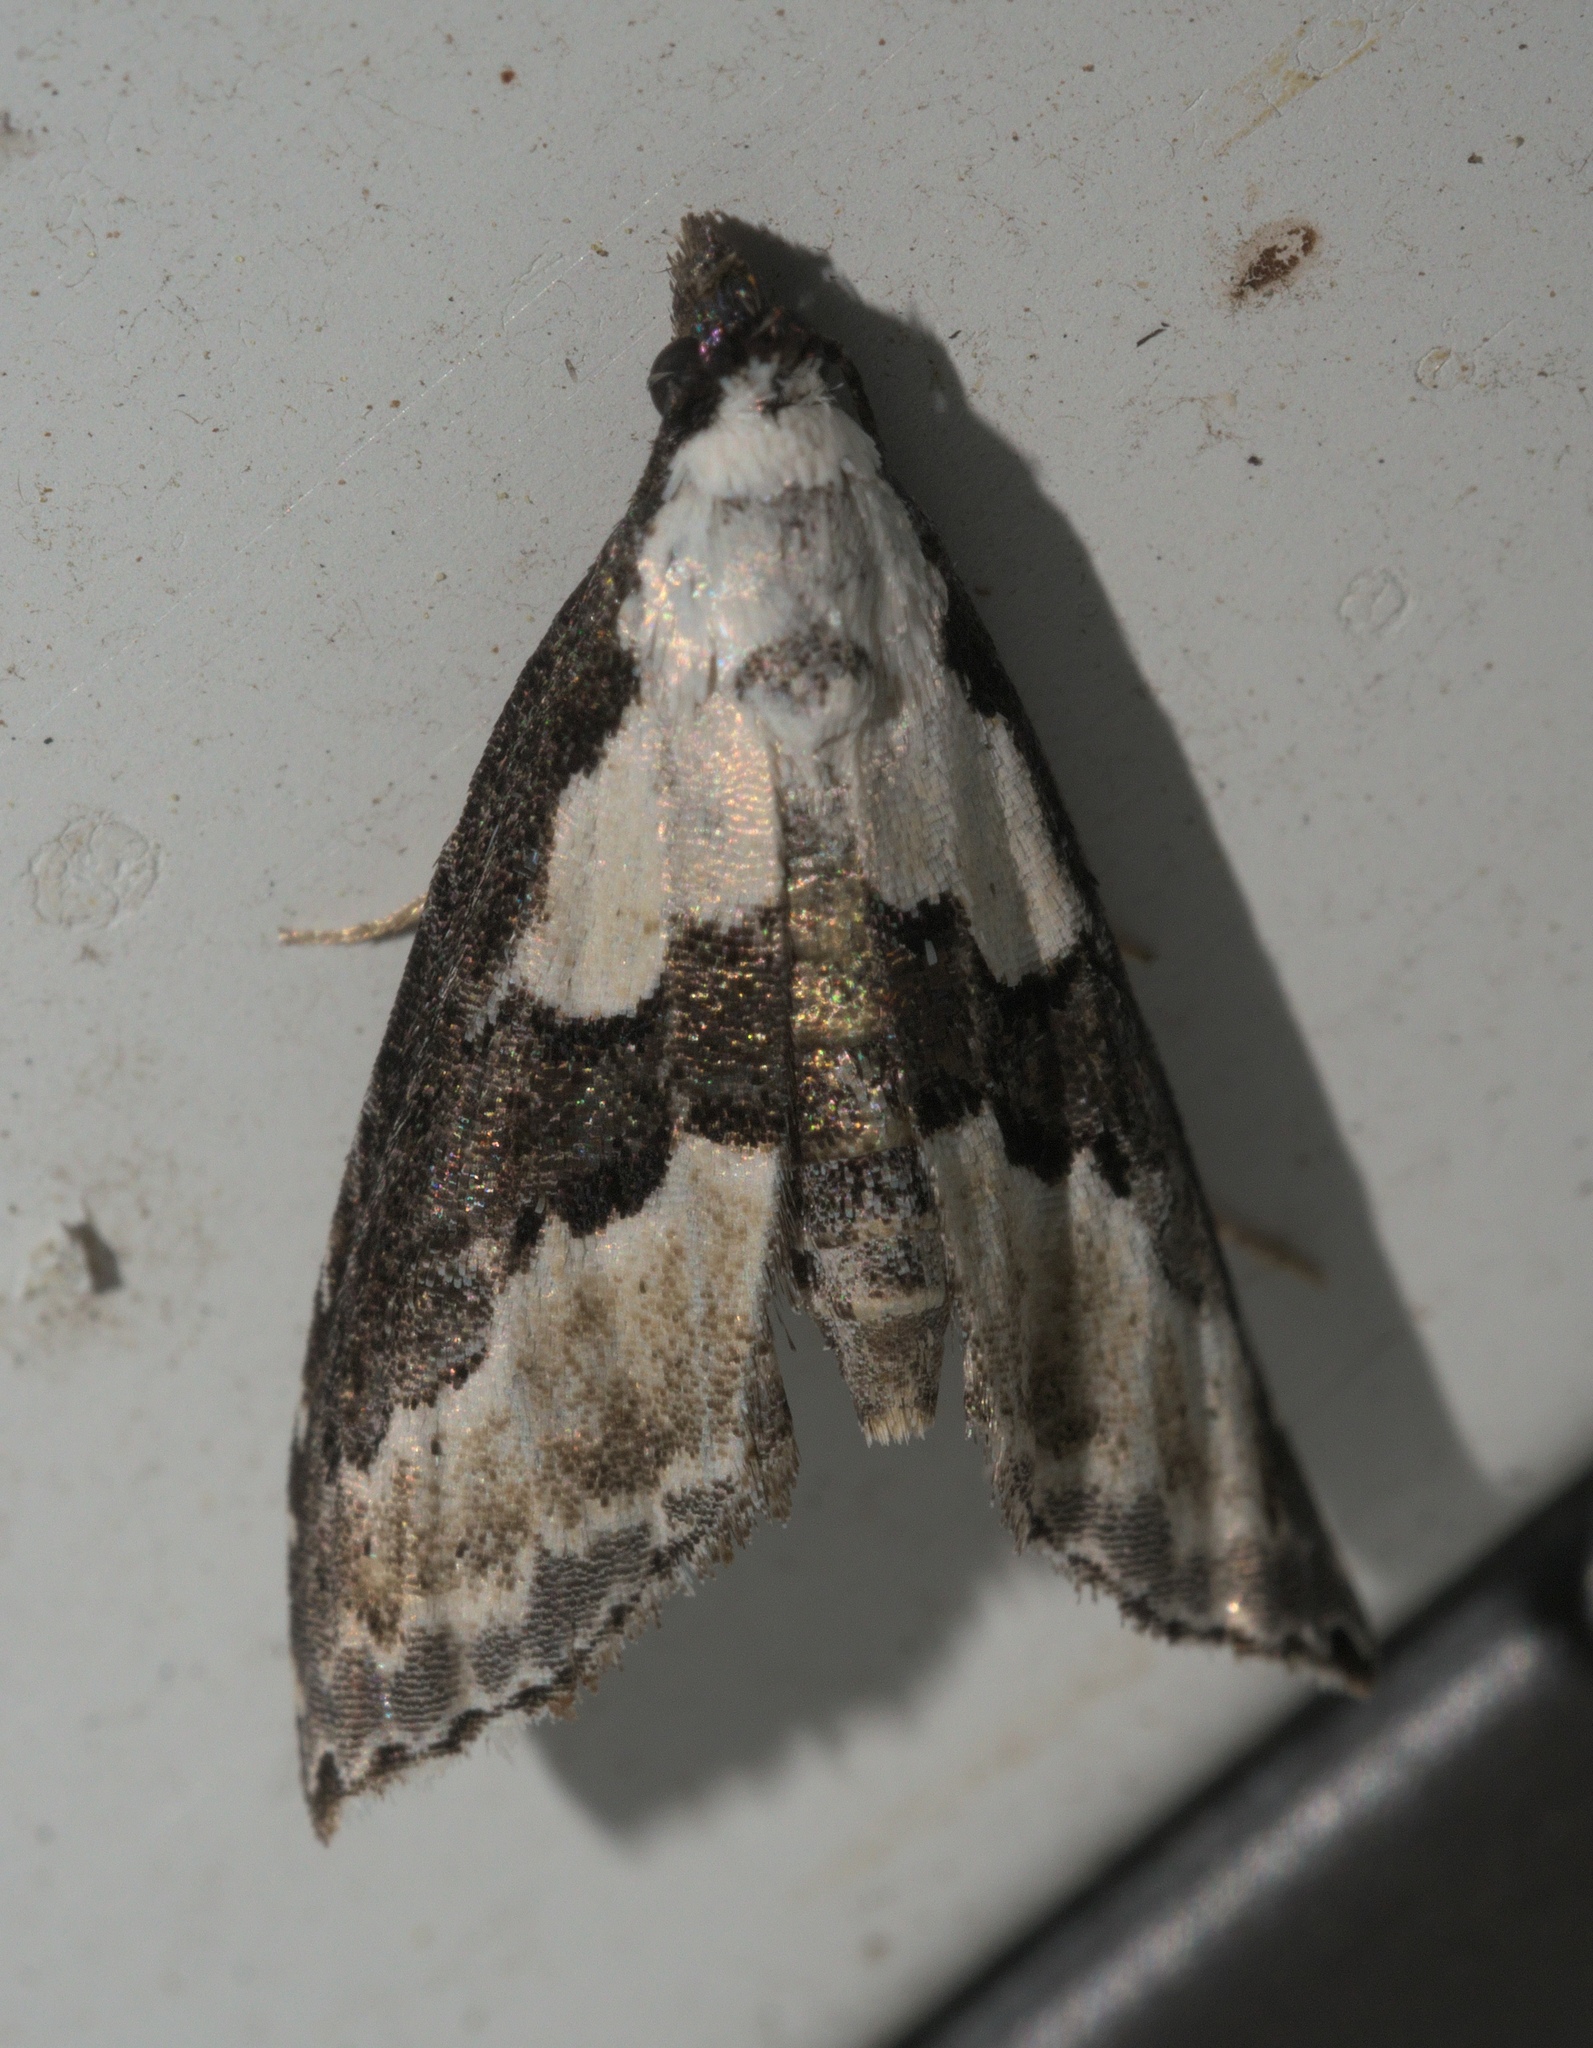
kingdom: Animalia
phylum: Arthropoda
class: Insecta
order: Lepidoptera
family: Noctuidae
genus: Nigetia
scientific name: Nigetia formosalis
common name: Thin-winged owlet
